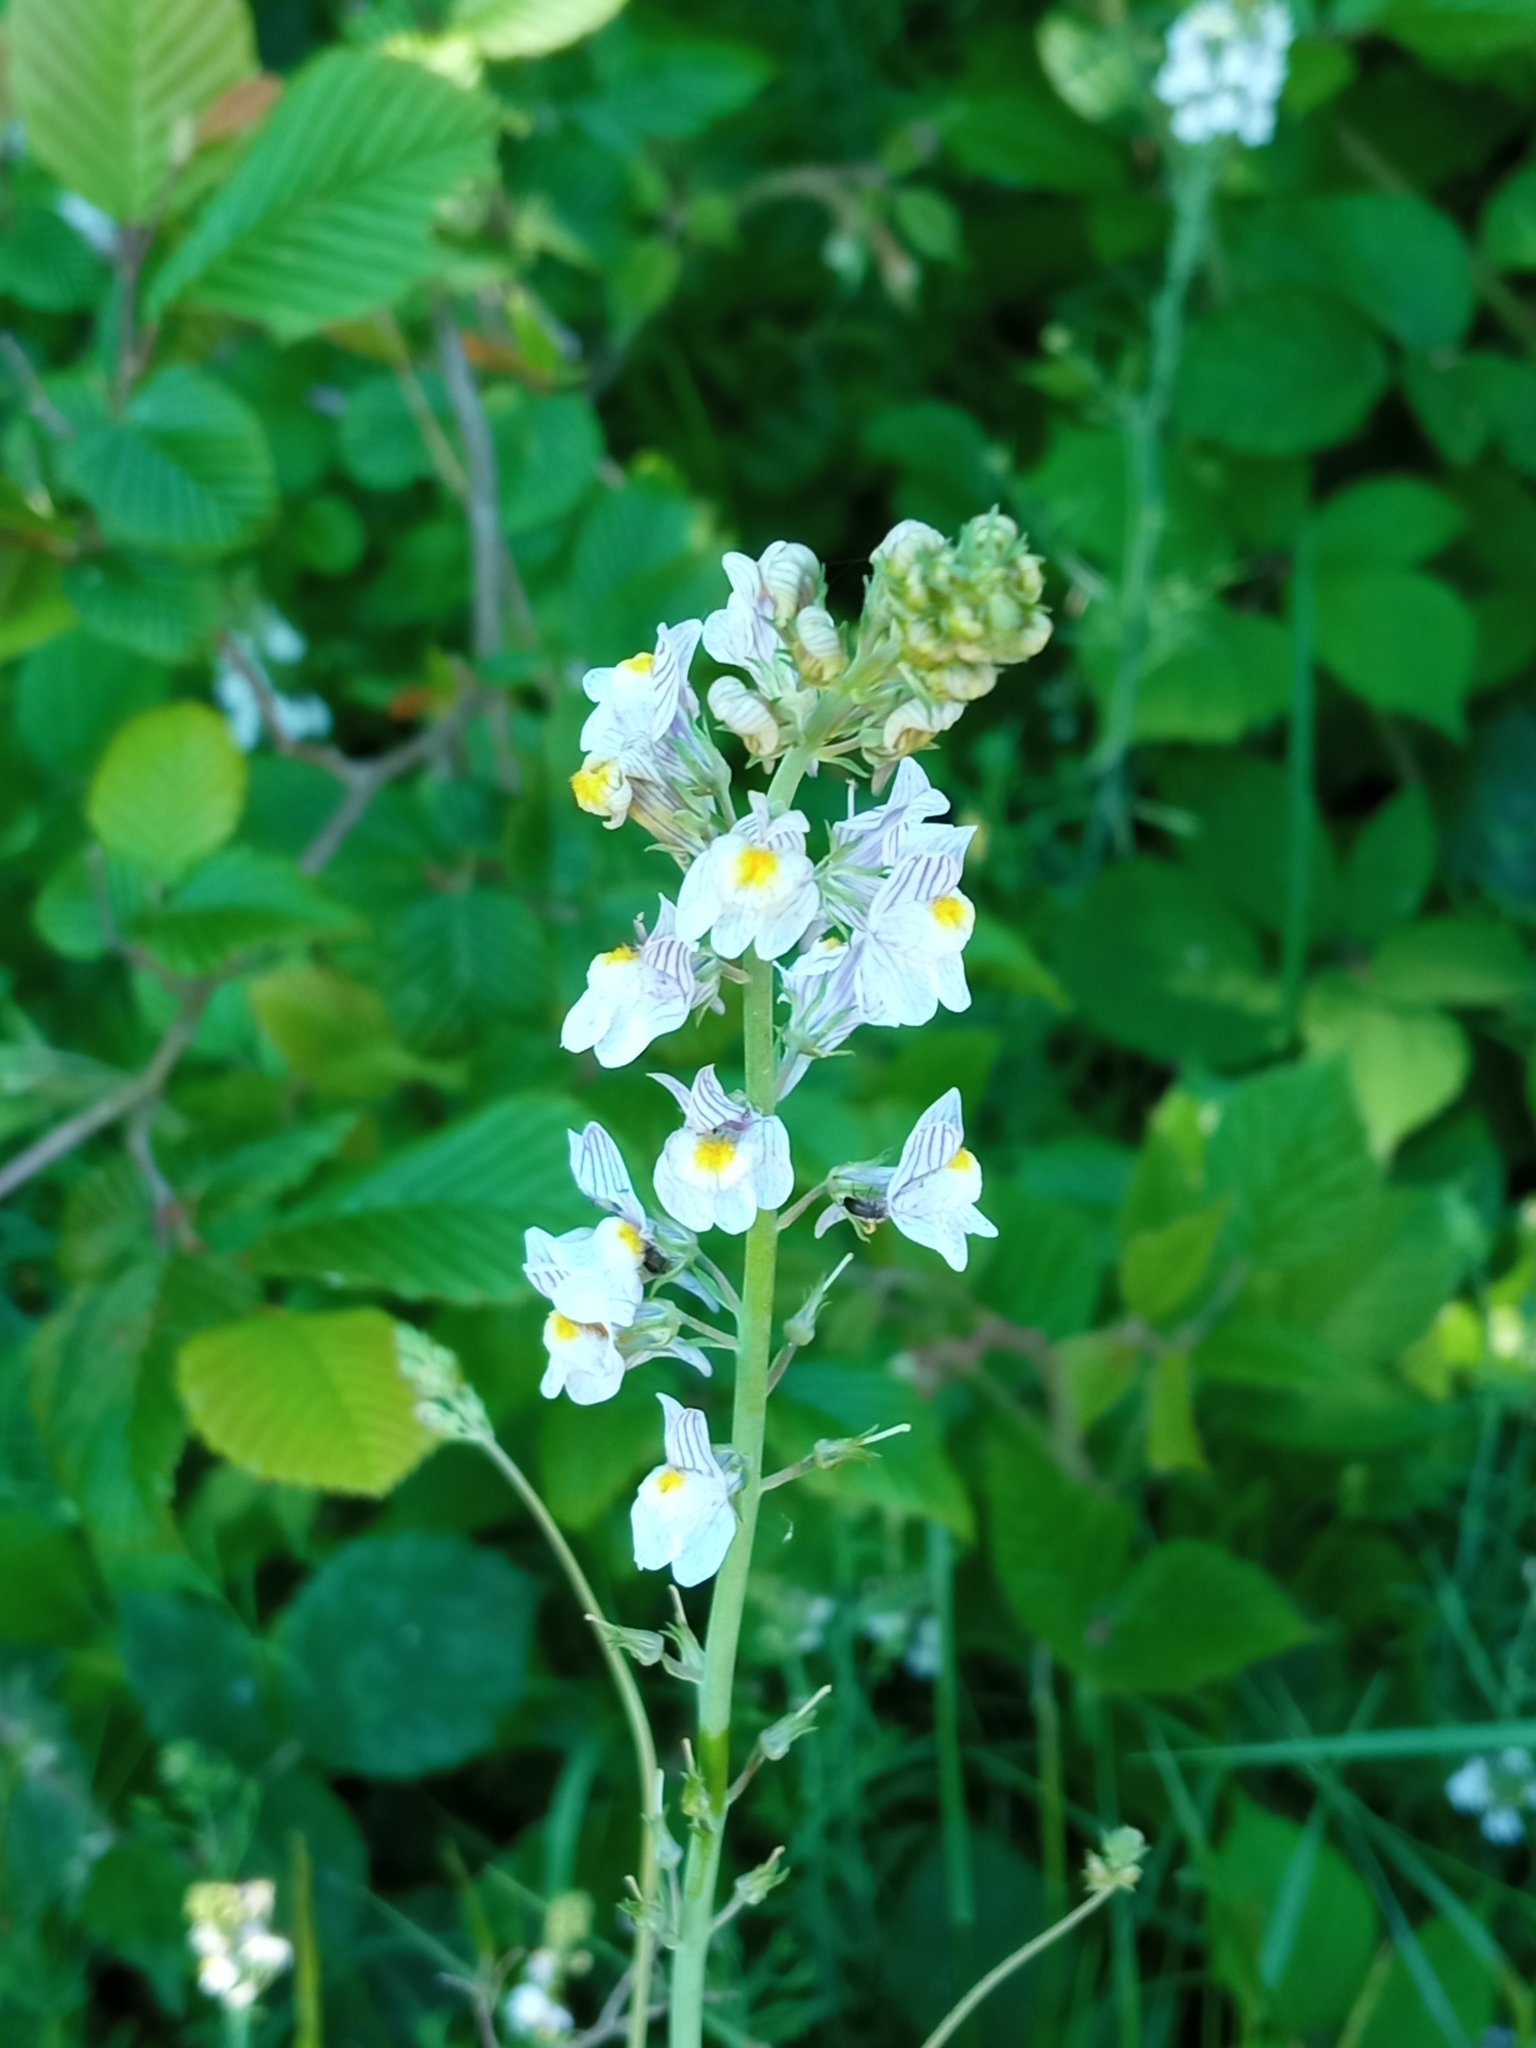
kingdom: Plantae
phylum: Tracheophyta
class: Magnoliopsida
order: Lamiales
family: Plantaginaceae
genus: Linaria
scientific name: Linaria repens
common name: Pale toadflax
